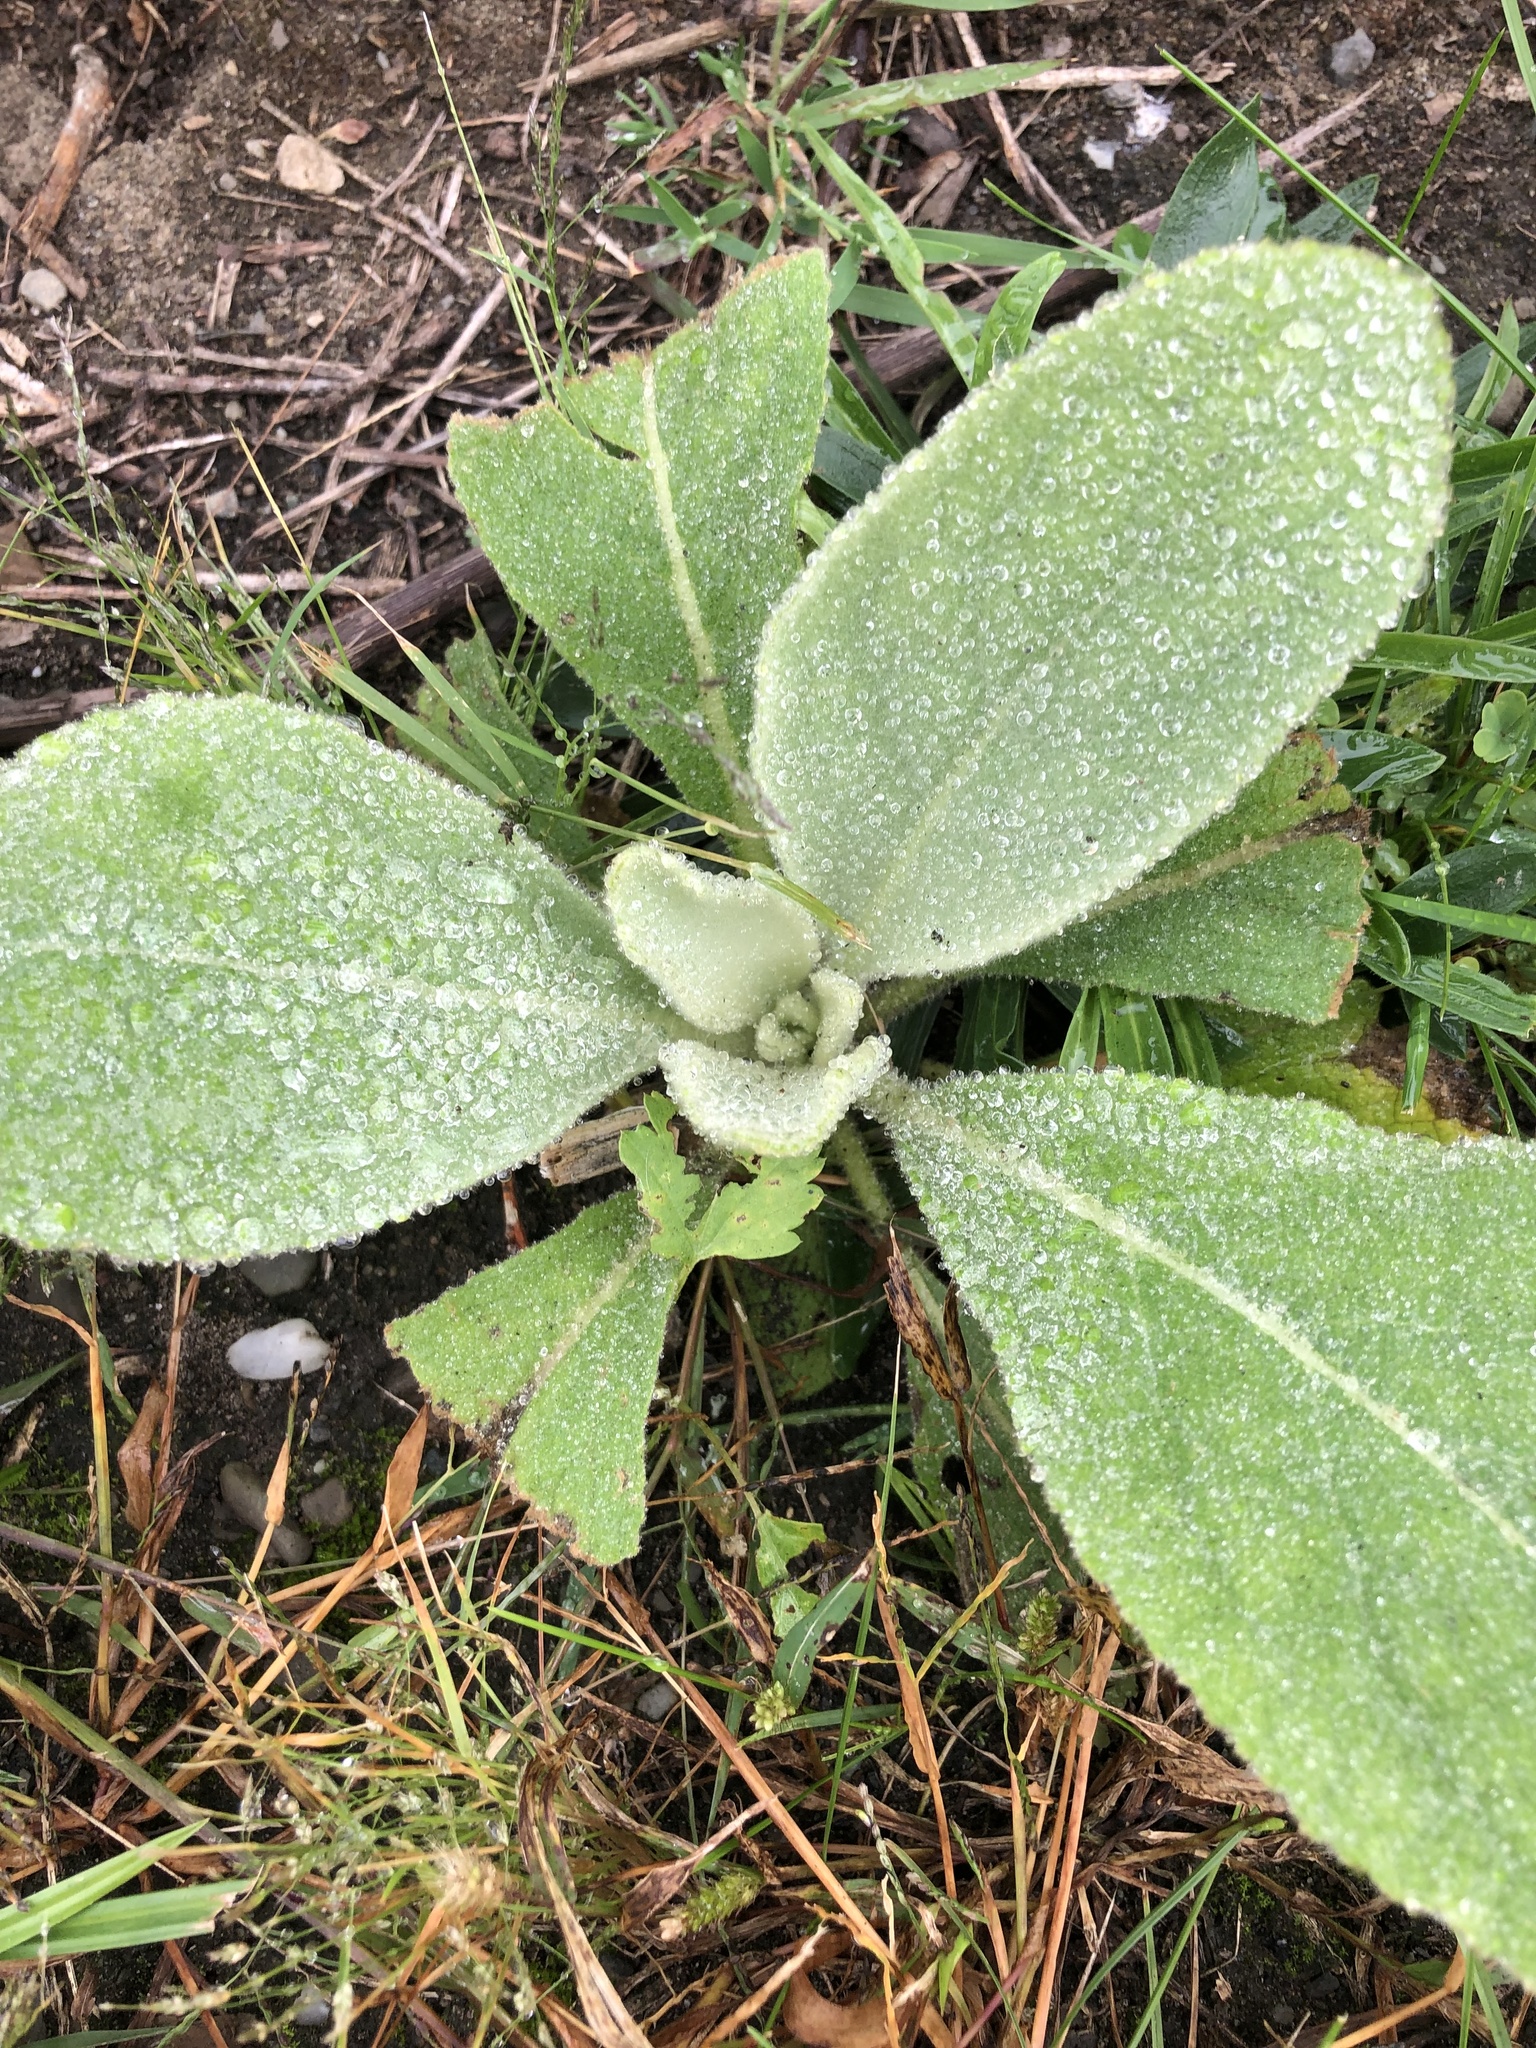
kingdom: Plantae
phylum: Tracheophyta
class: Magnoliopsida
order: Lamiales
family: Scrophulariaceae
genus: Verbascum
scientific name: Verbascum thapsus
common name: Common mullein
